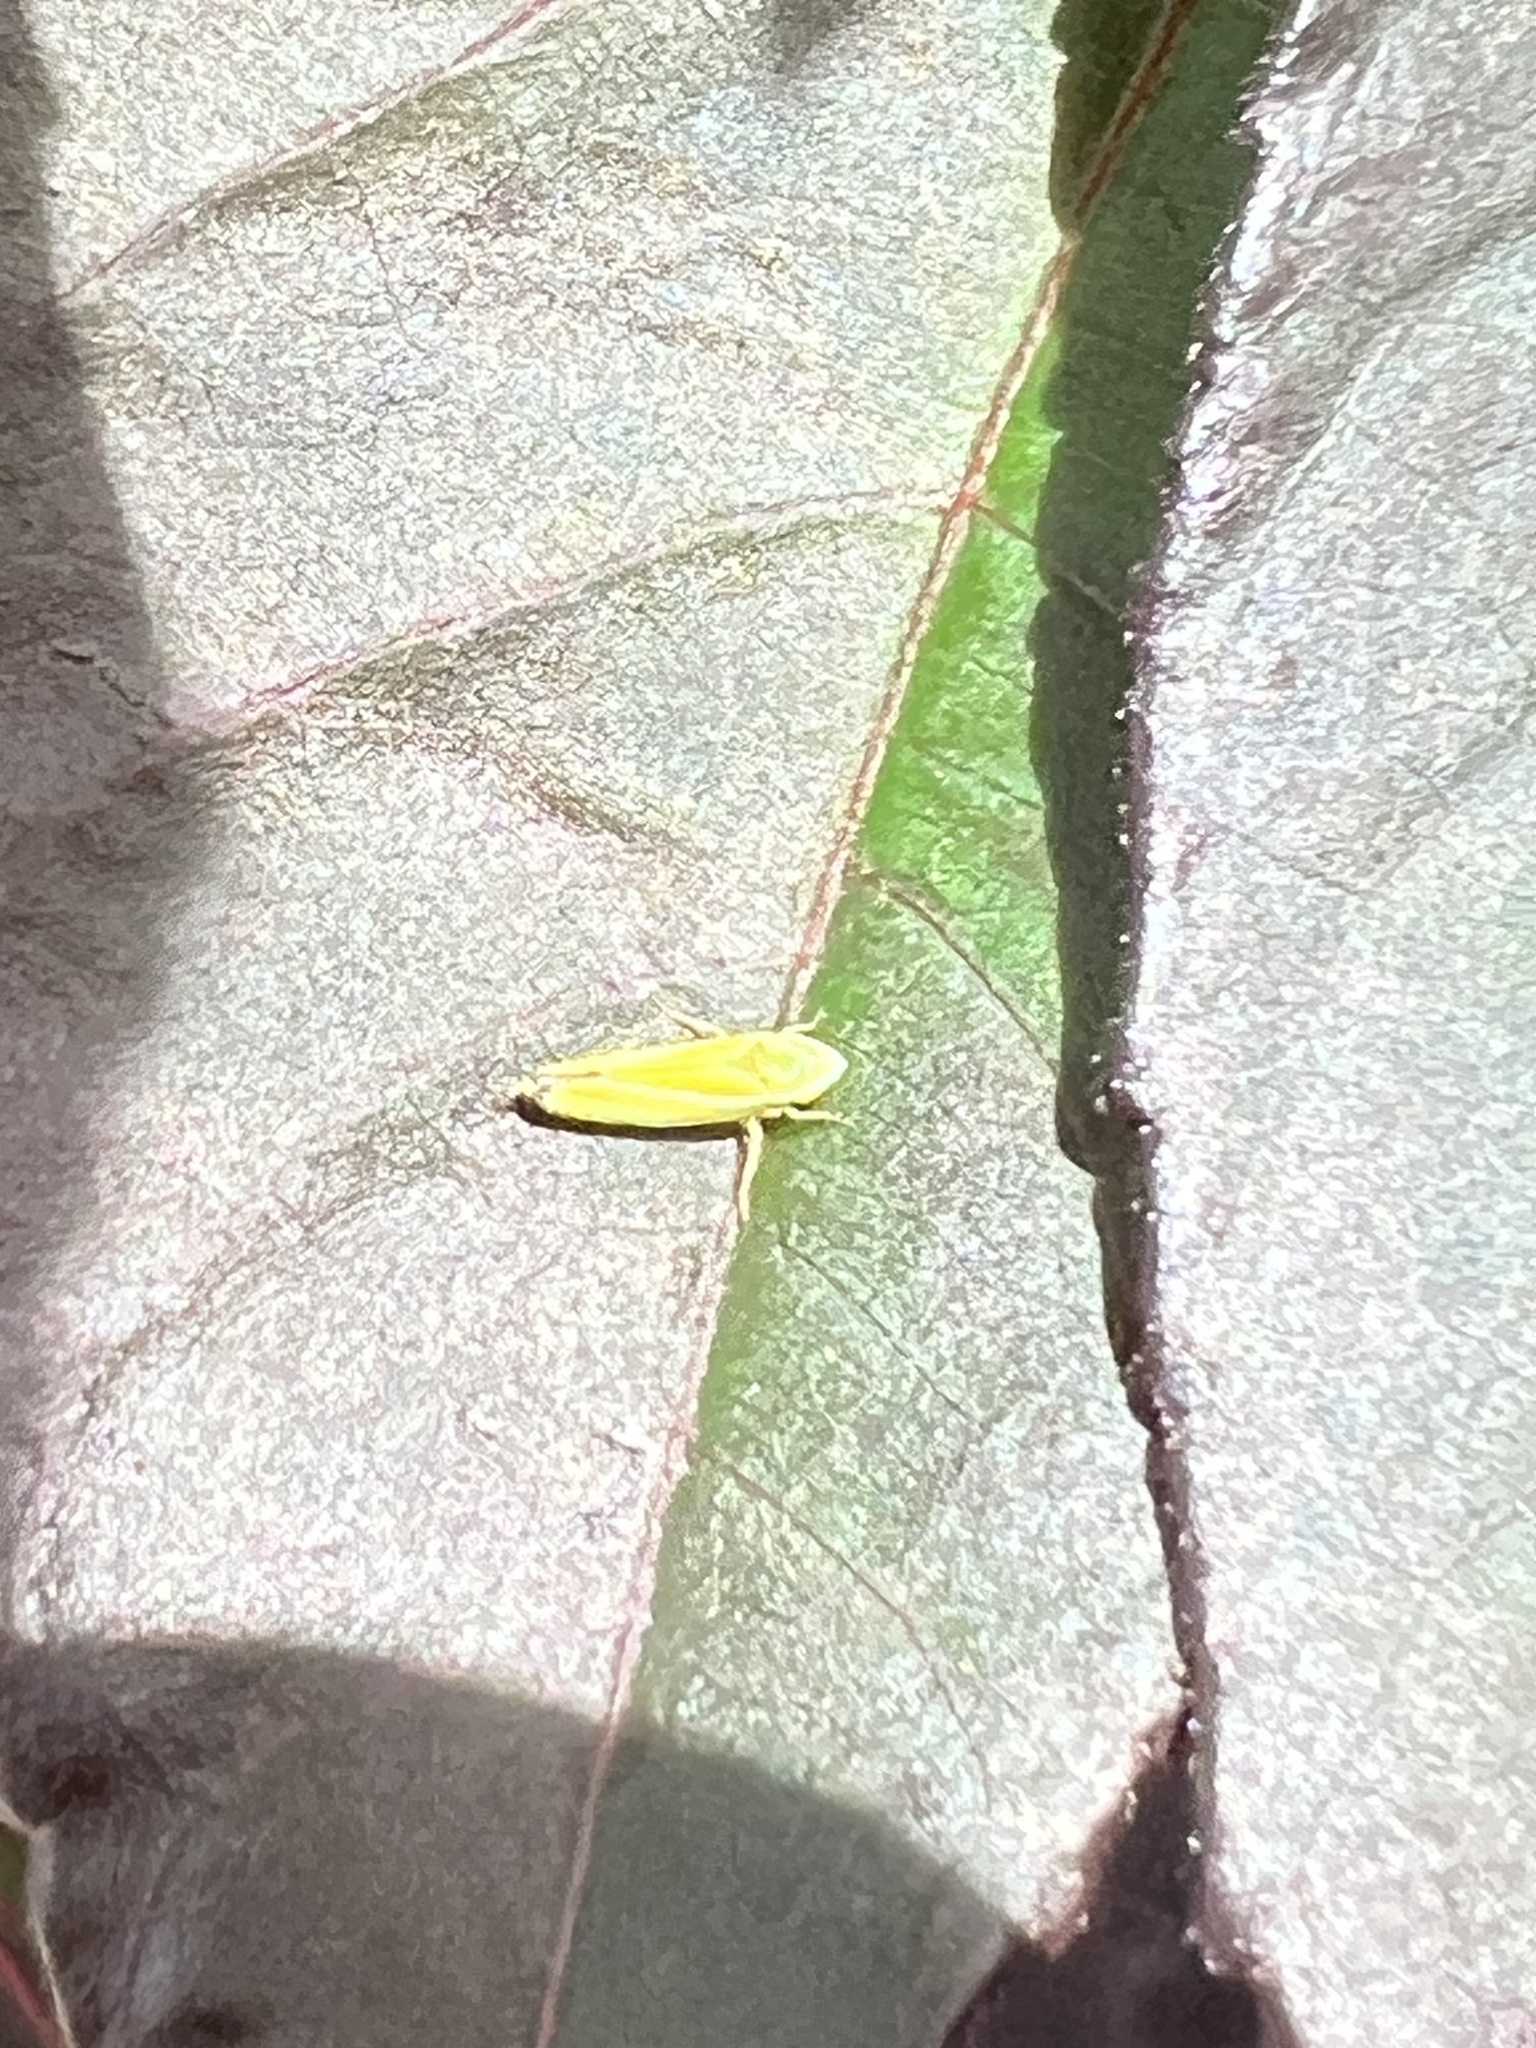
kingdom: Animalia
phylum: Arthropoda
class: Insecta
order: Hemiptera
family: Cicadellidae
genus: Graphocephala
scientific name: Graphocephala versuta
